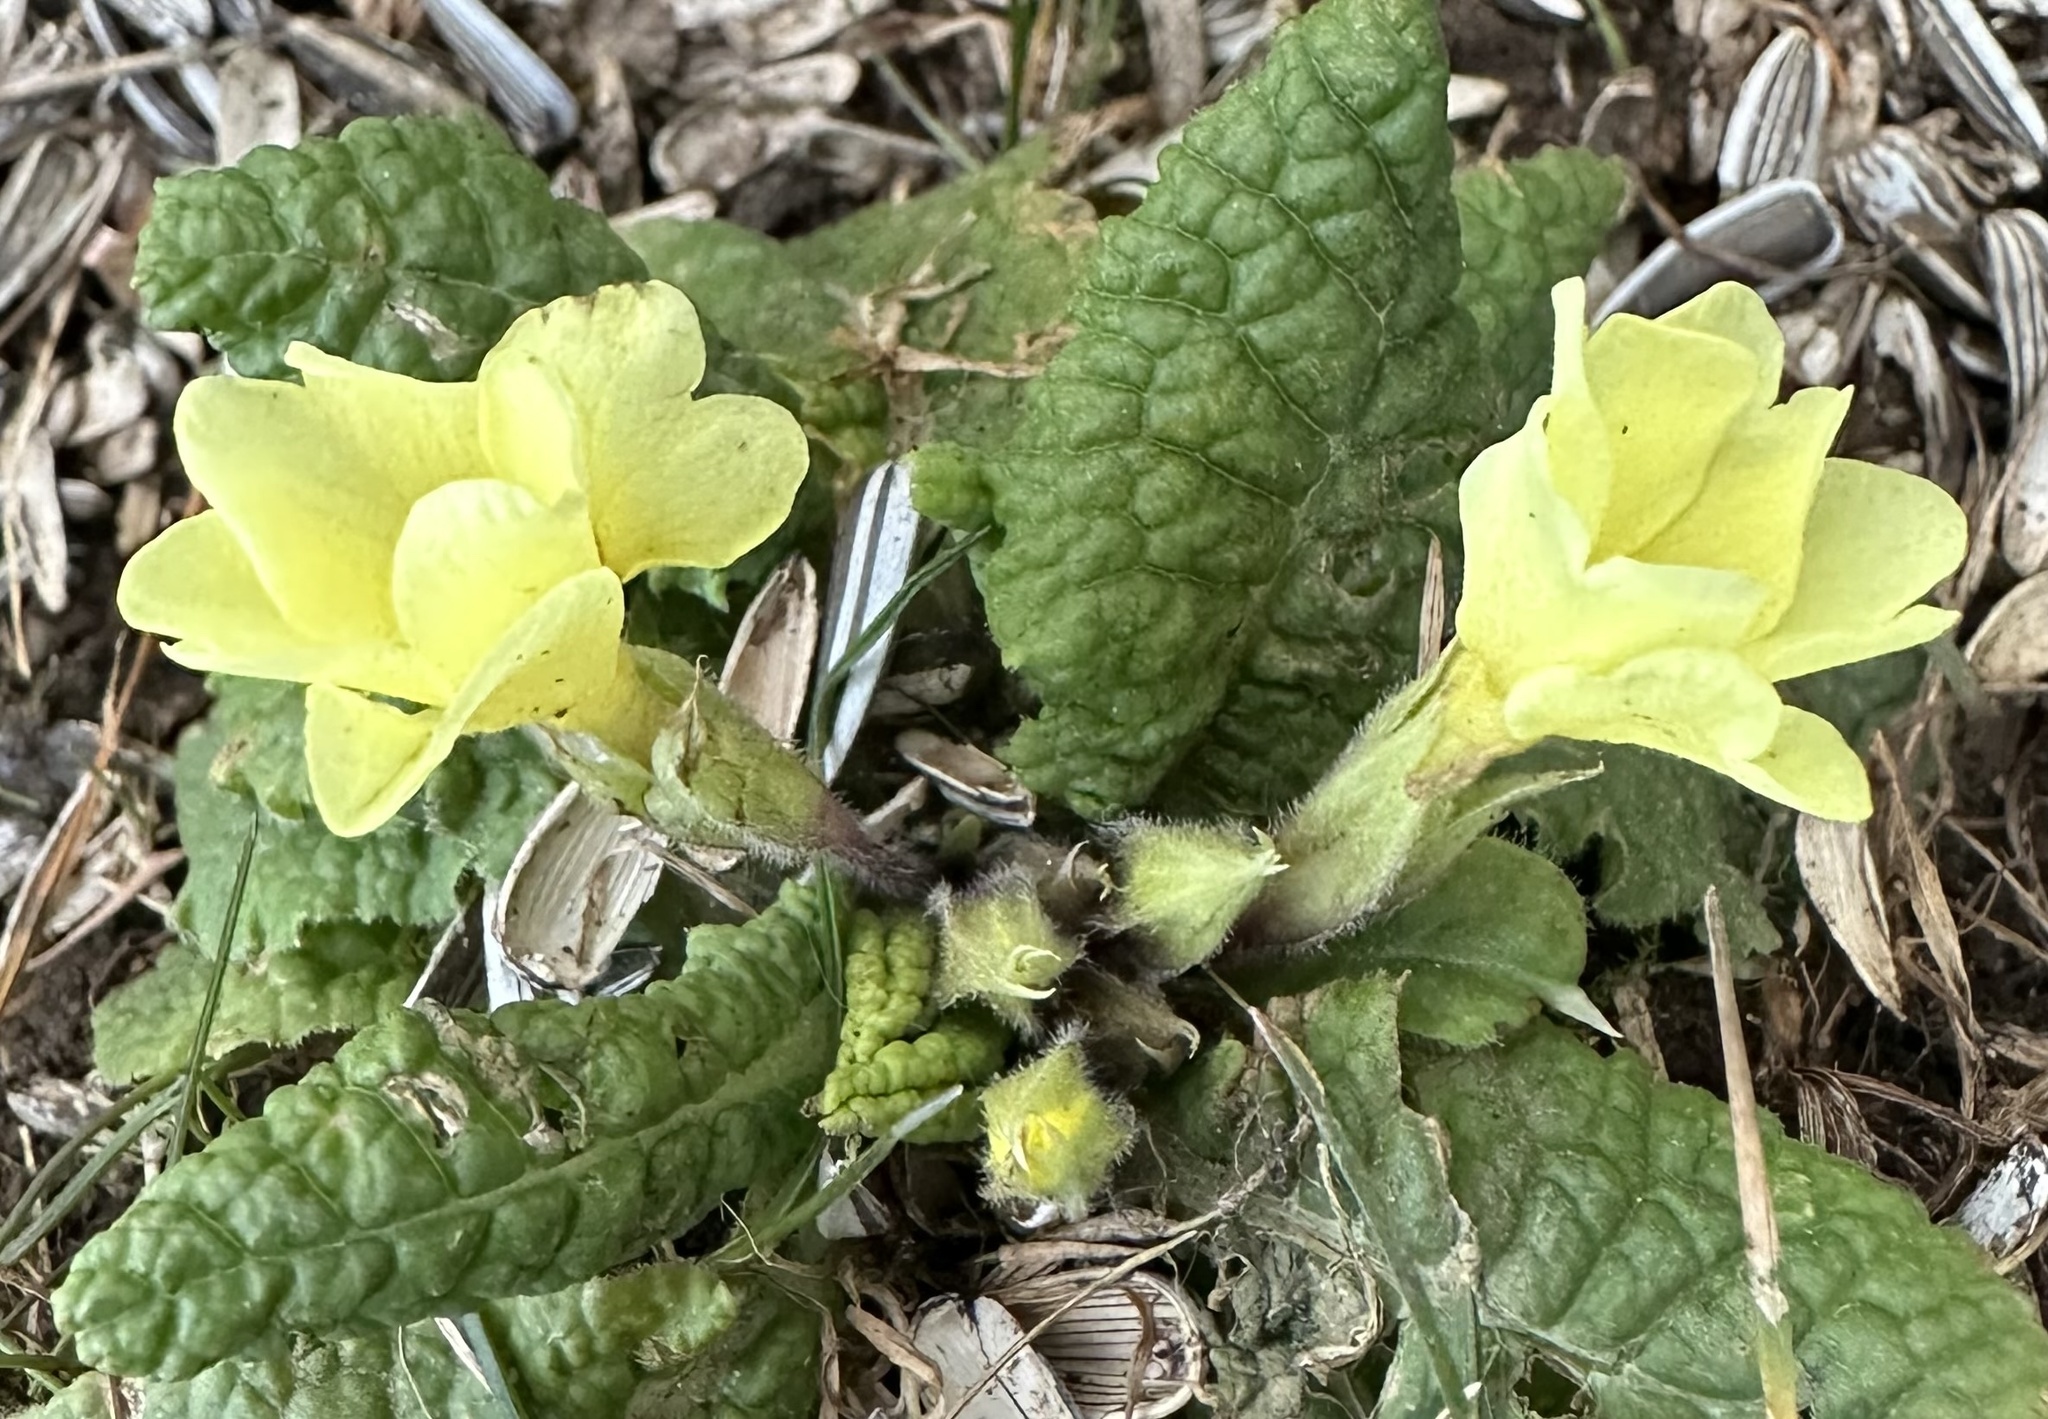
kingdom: Plantae
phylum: Tracheophyta
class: Magnoliopsida
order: Ericales
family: Primulaceae
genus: Primula
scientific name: Primula vulgaris
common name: Primrose
